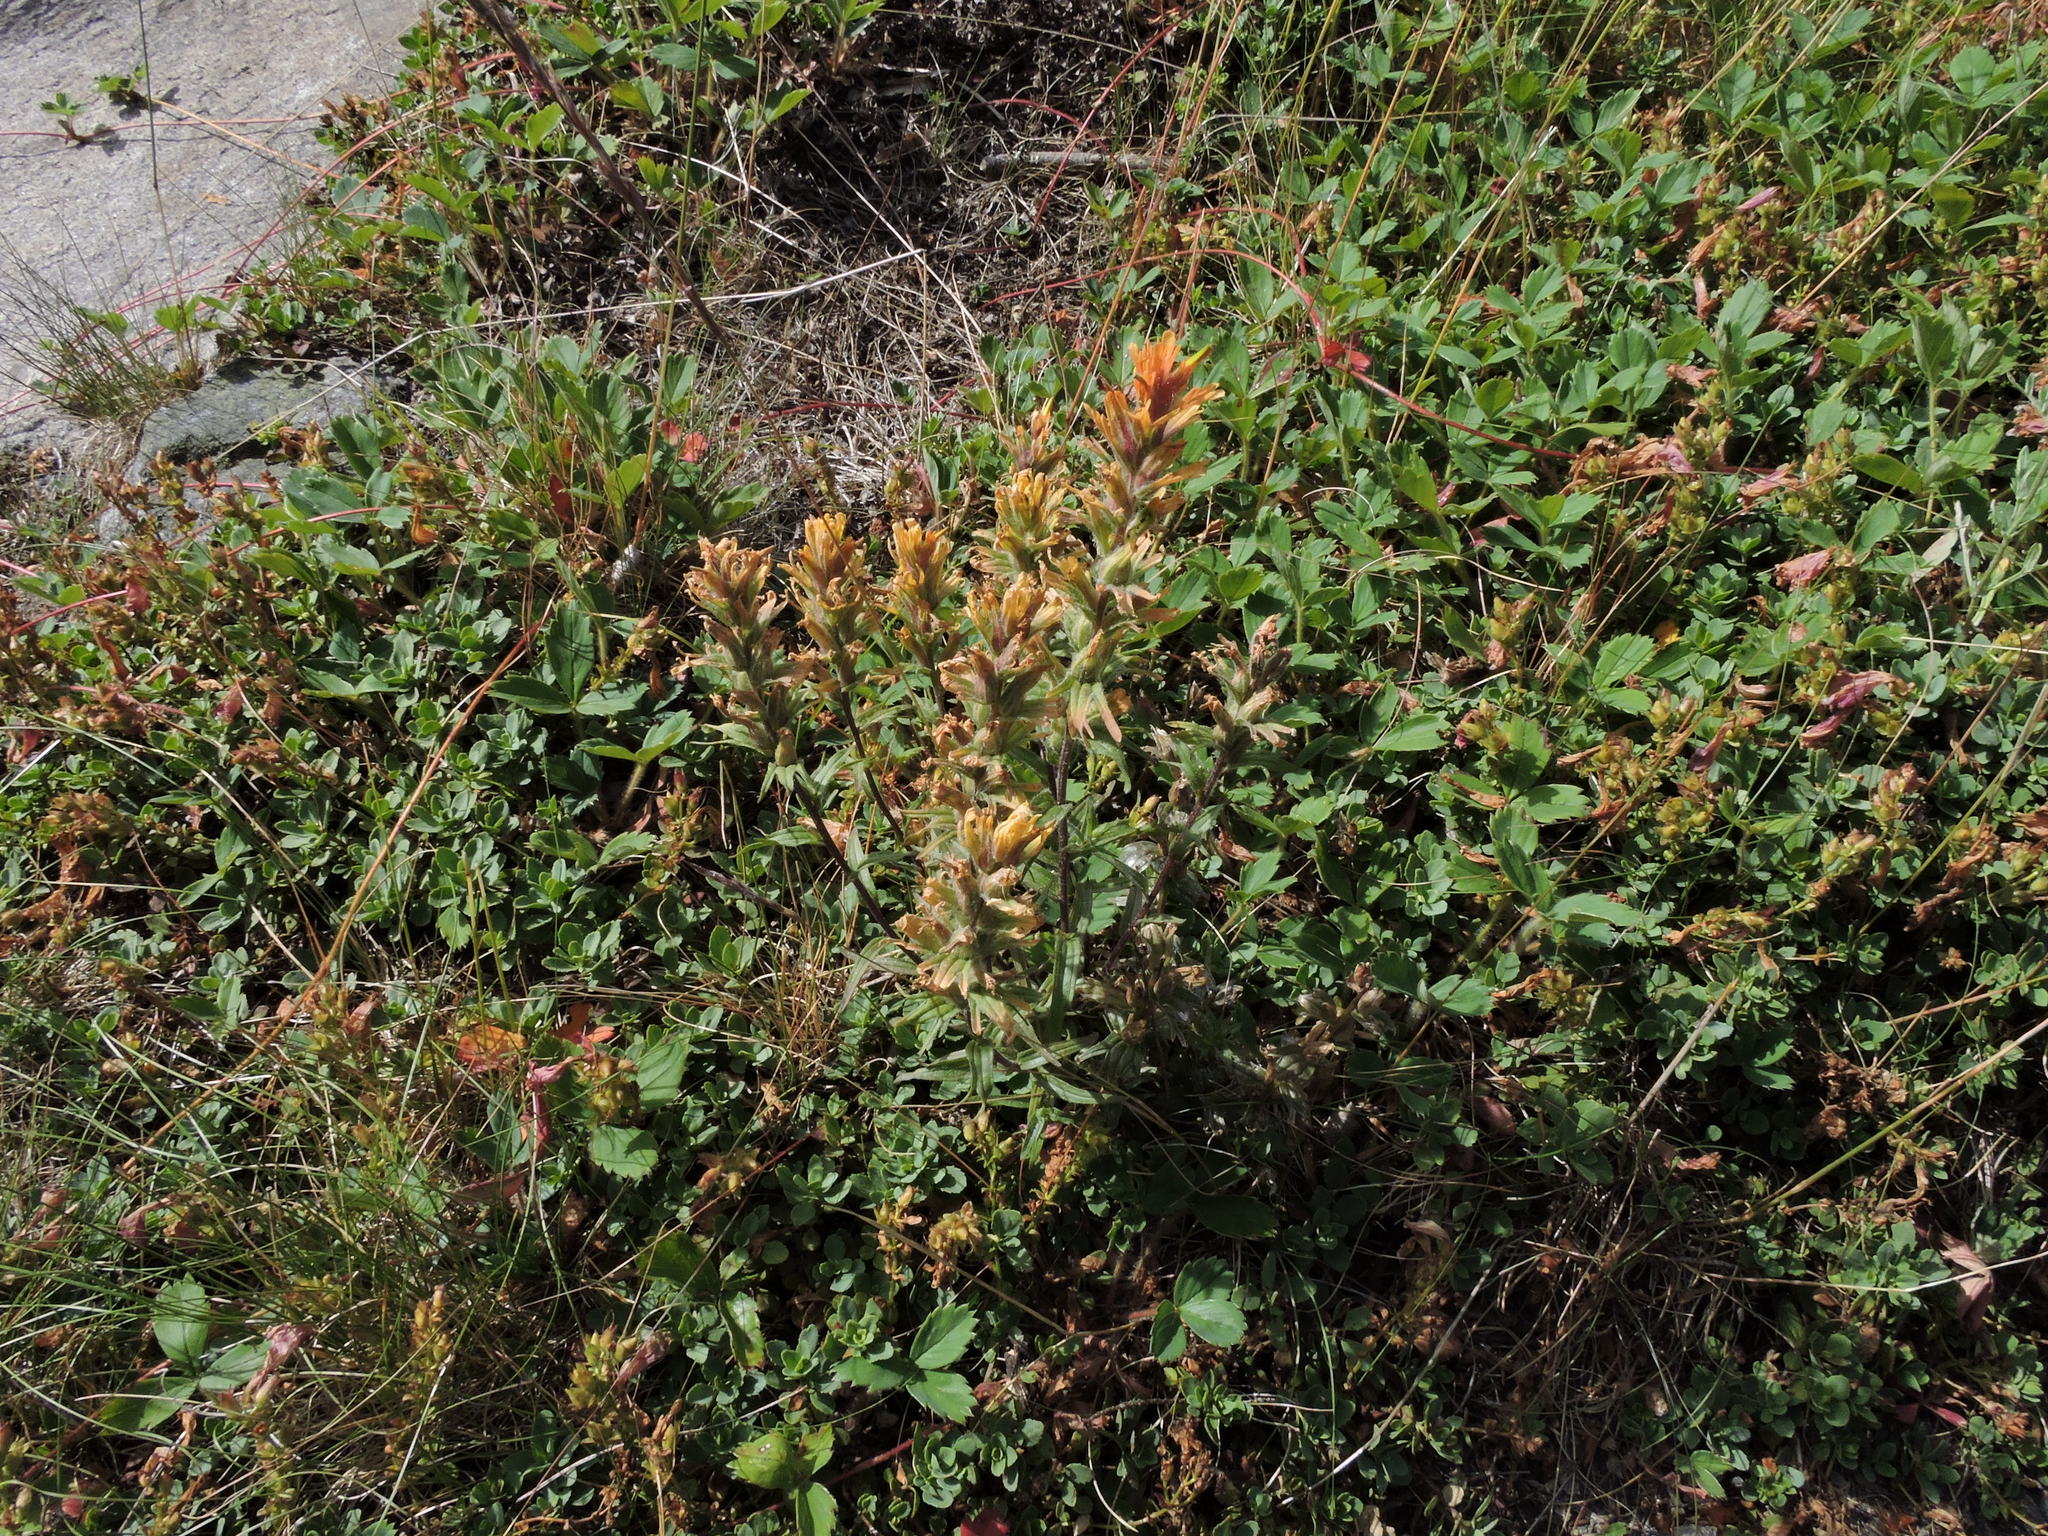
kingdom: Plantae
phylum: Tracheophyta
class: Magnoliopsida
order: Lamiales
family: Orobanchaceae
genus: Castilleja
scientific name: Castilleja hispida
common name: Bristly paintbrush
